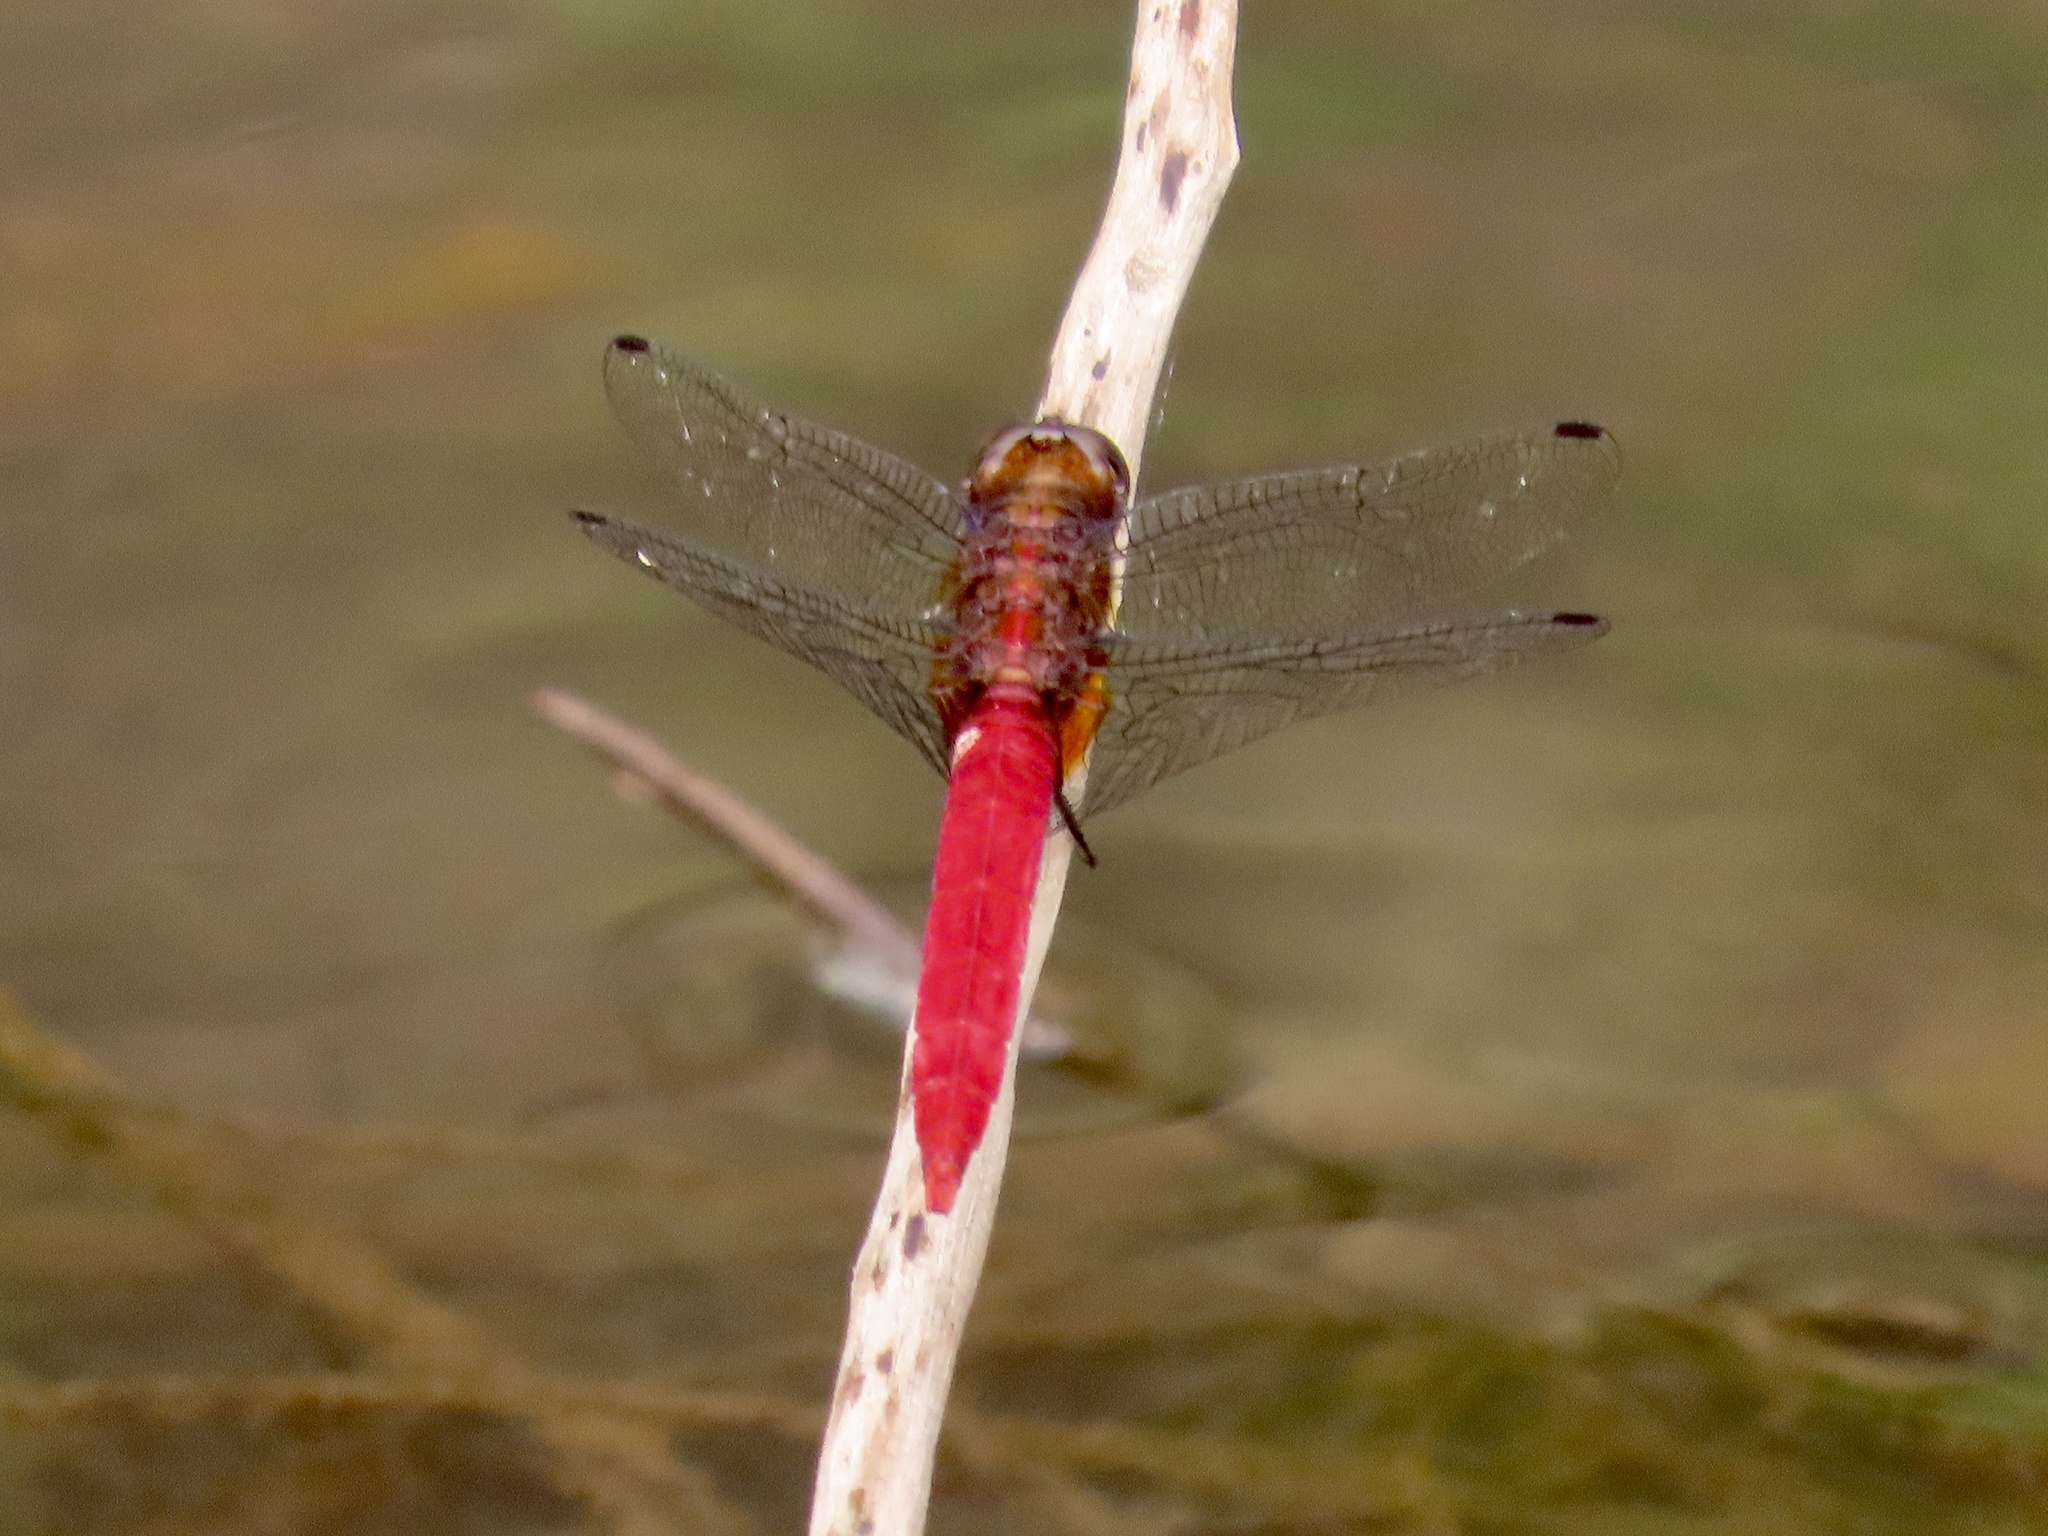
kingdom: Animalia
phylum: Arthropoda
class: Insecta
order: Odonata
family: Libellulidae
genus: Orthetrum
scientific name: Orthetrum chrysis
